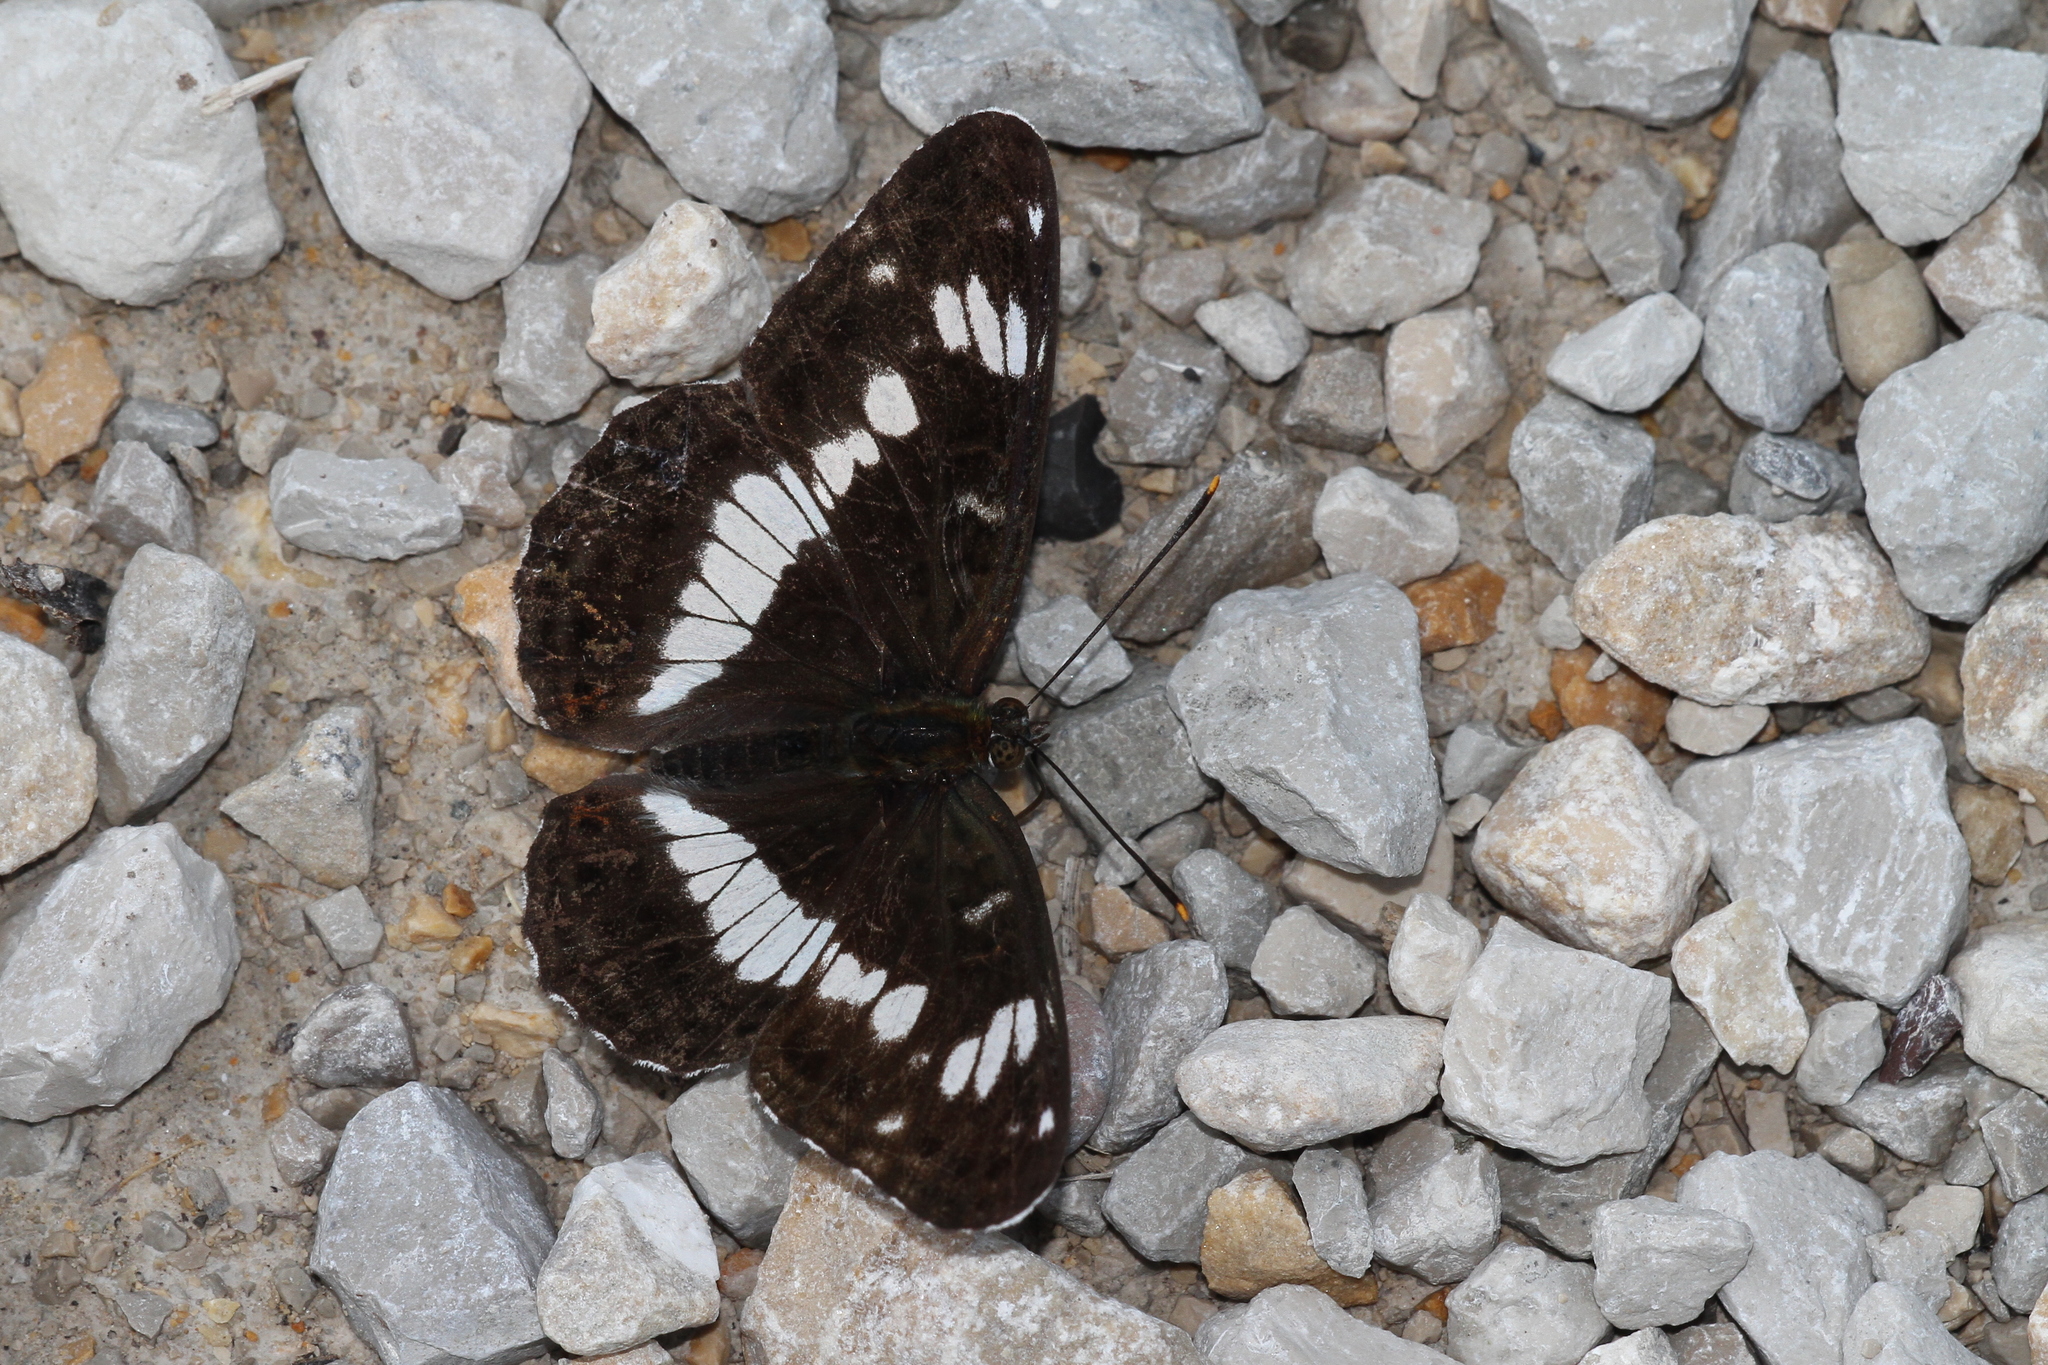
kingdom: Animalia
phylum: Arthropoda
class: Insecta
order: Lepidoptera
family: Nymphalidae
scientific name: Nymphalidae
